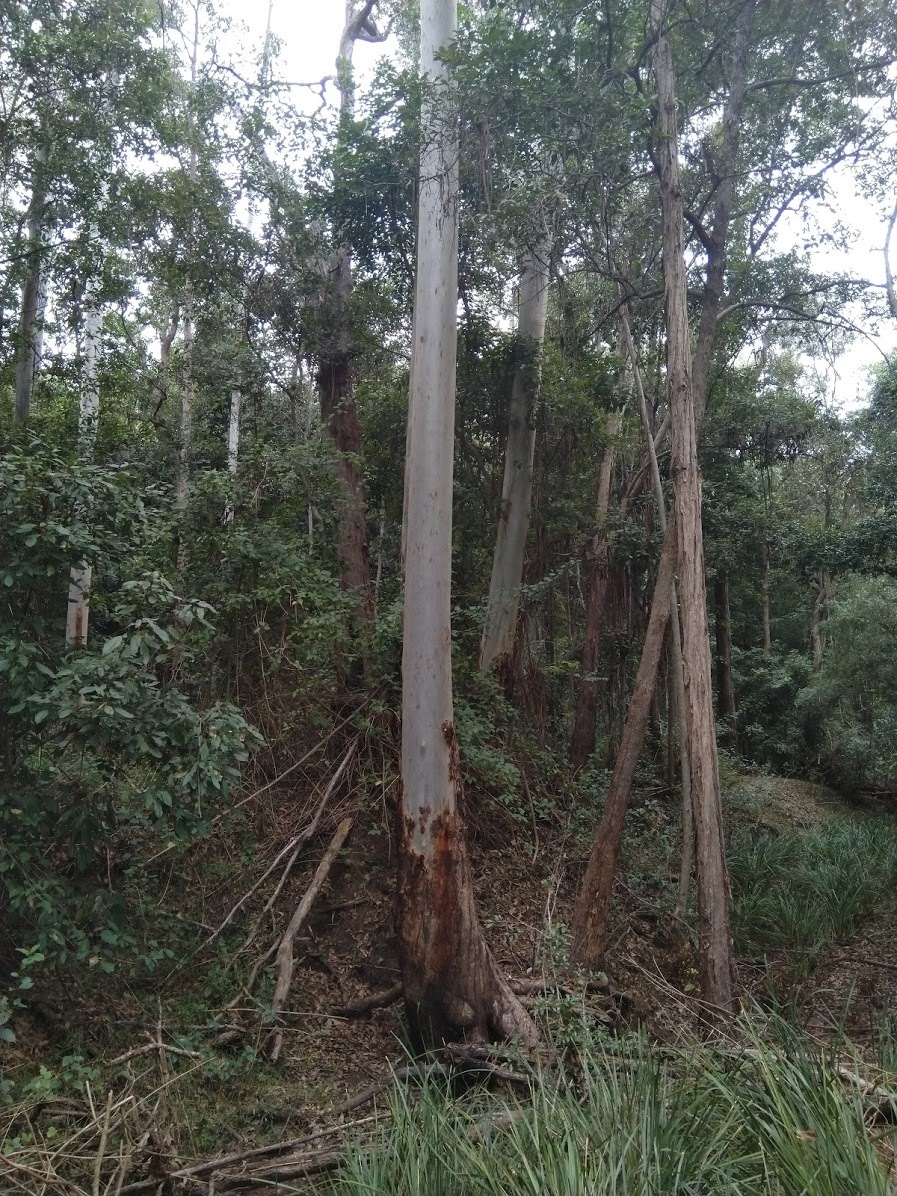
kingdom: Plantae
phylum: Tracheophyta
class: Magnoliopsida
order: Myrtales
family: Myrtaceae
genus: Eucalyptus
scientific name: Eucalyptus grandis
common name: Grand eucalyptus
